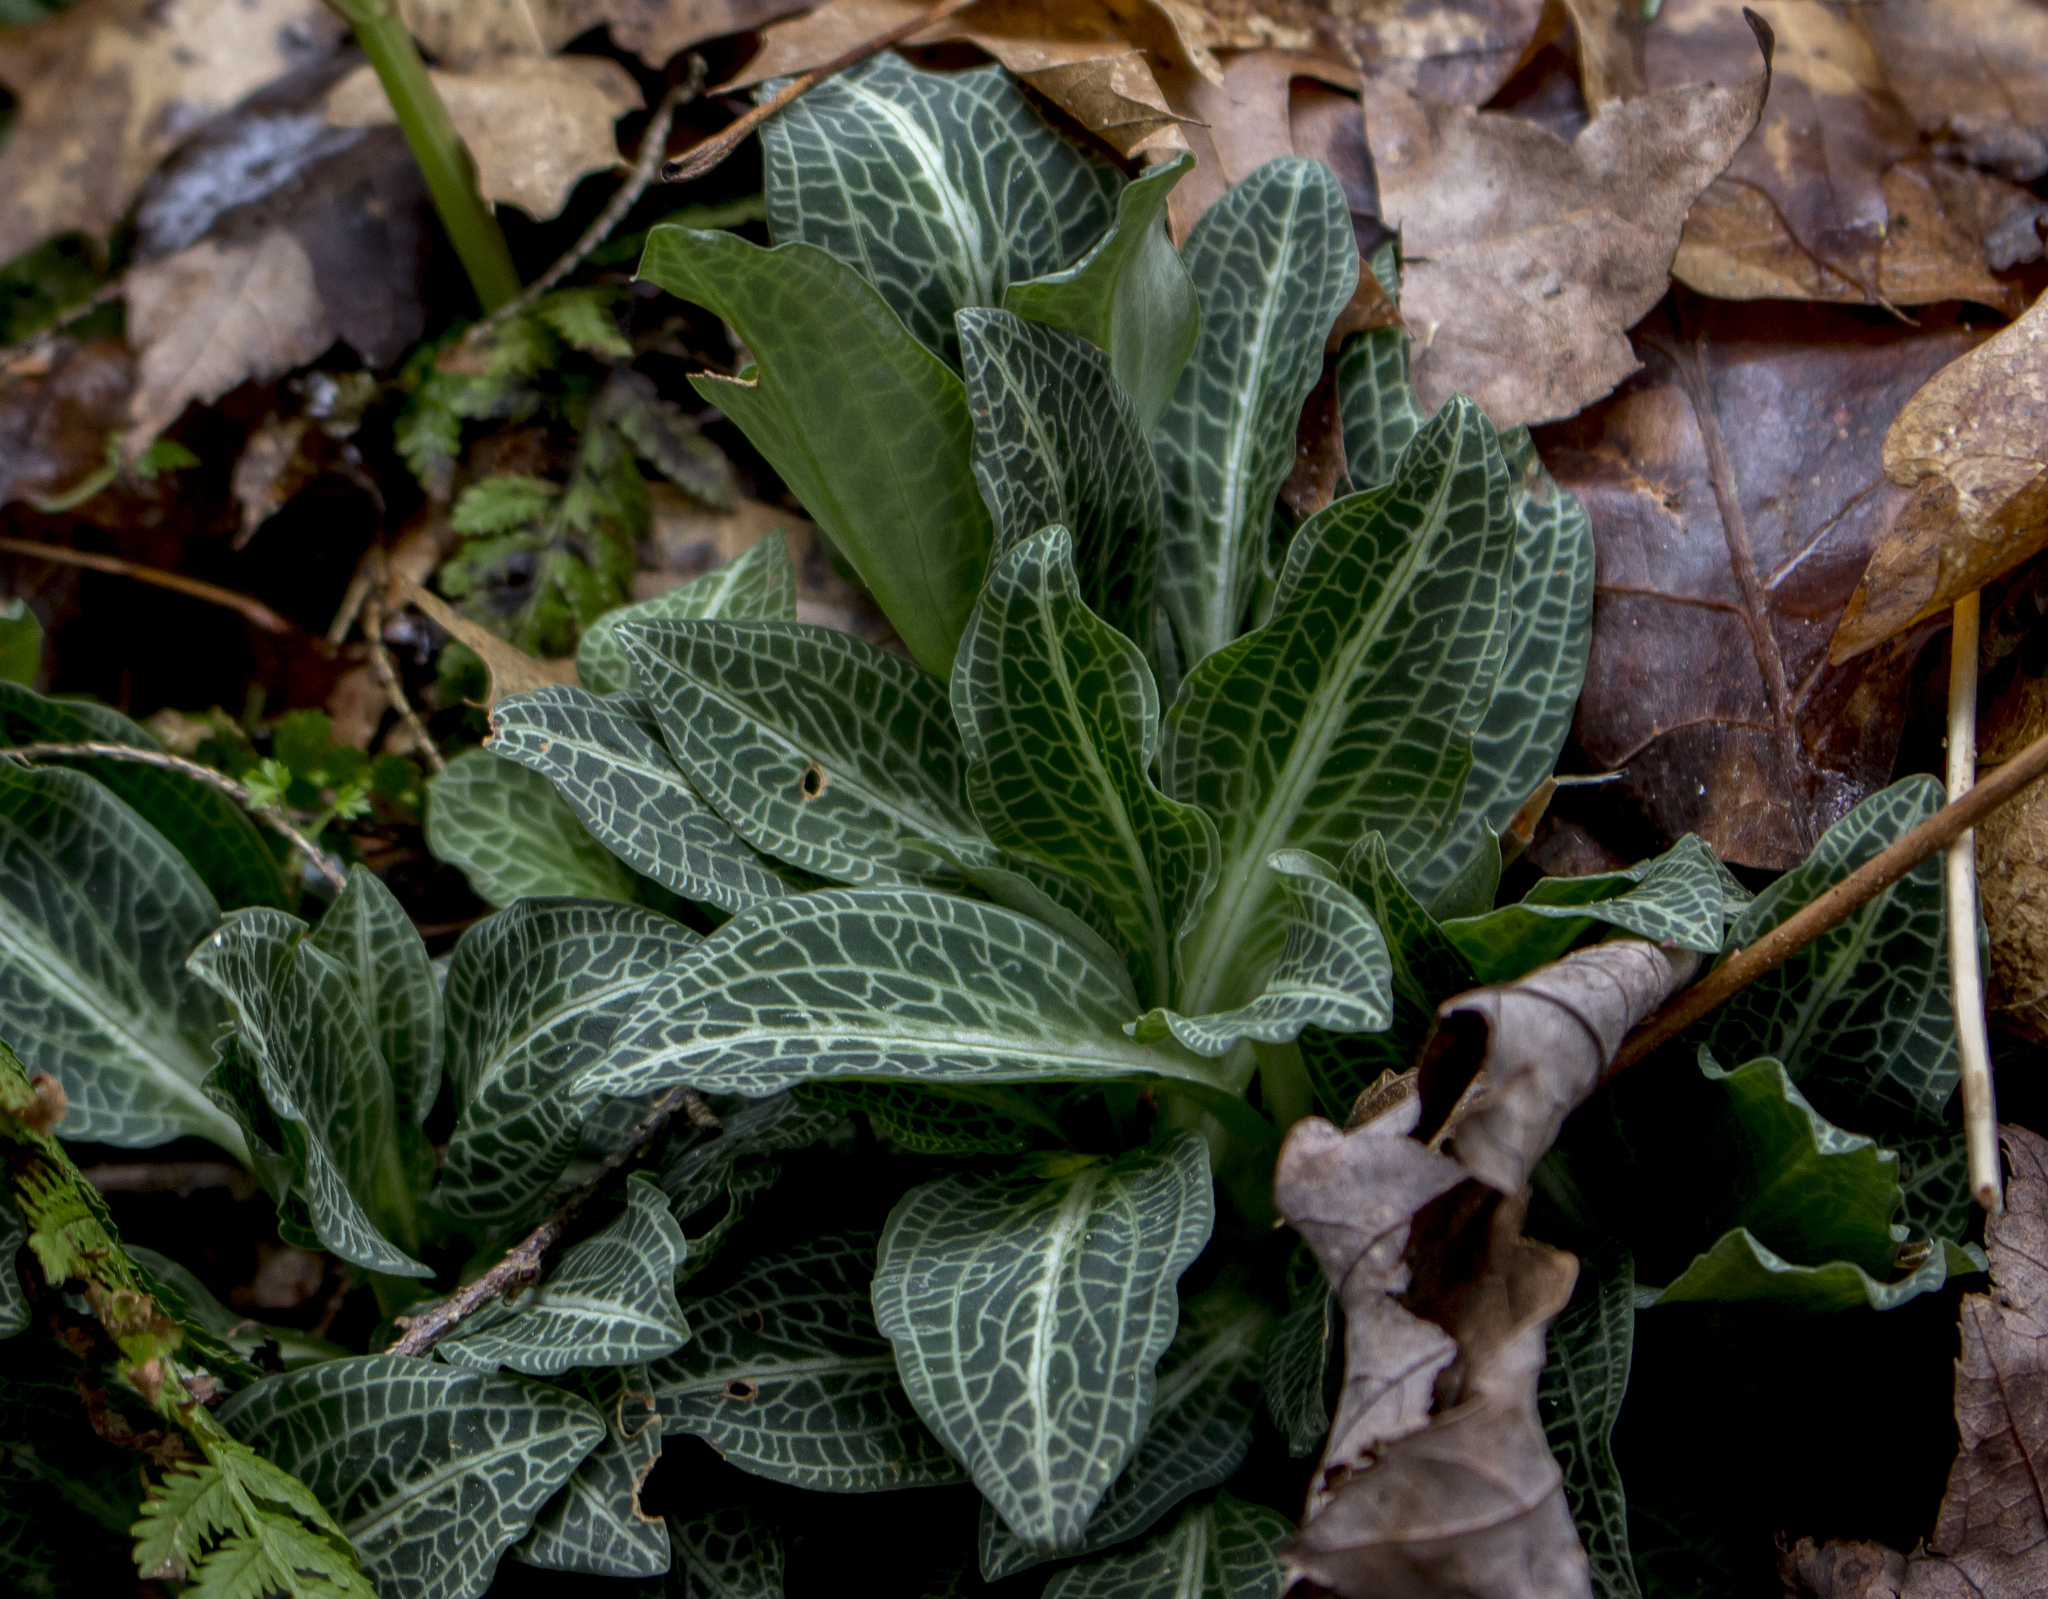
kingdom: Plantae
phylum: Tracheophyta
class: Liliopsida
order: Asparagales
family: Orchidaceae
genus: Goodyera
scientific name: Goodyera pubescens
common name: Downy rattlesnake-plantain
